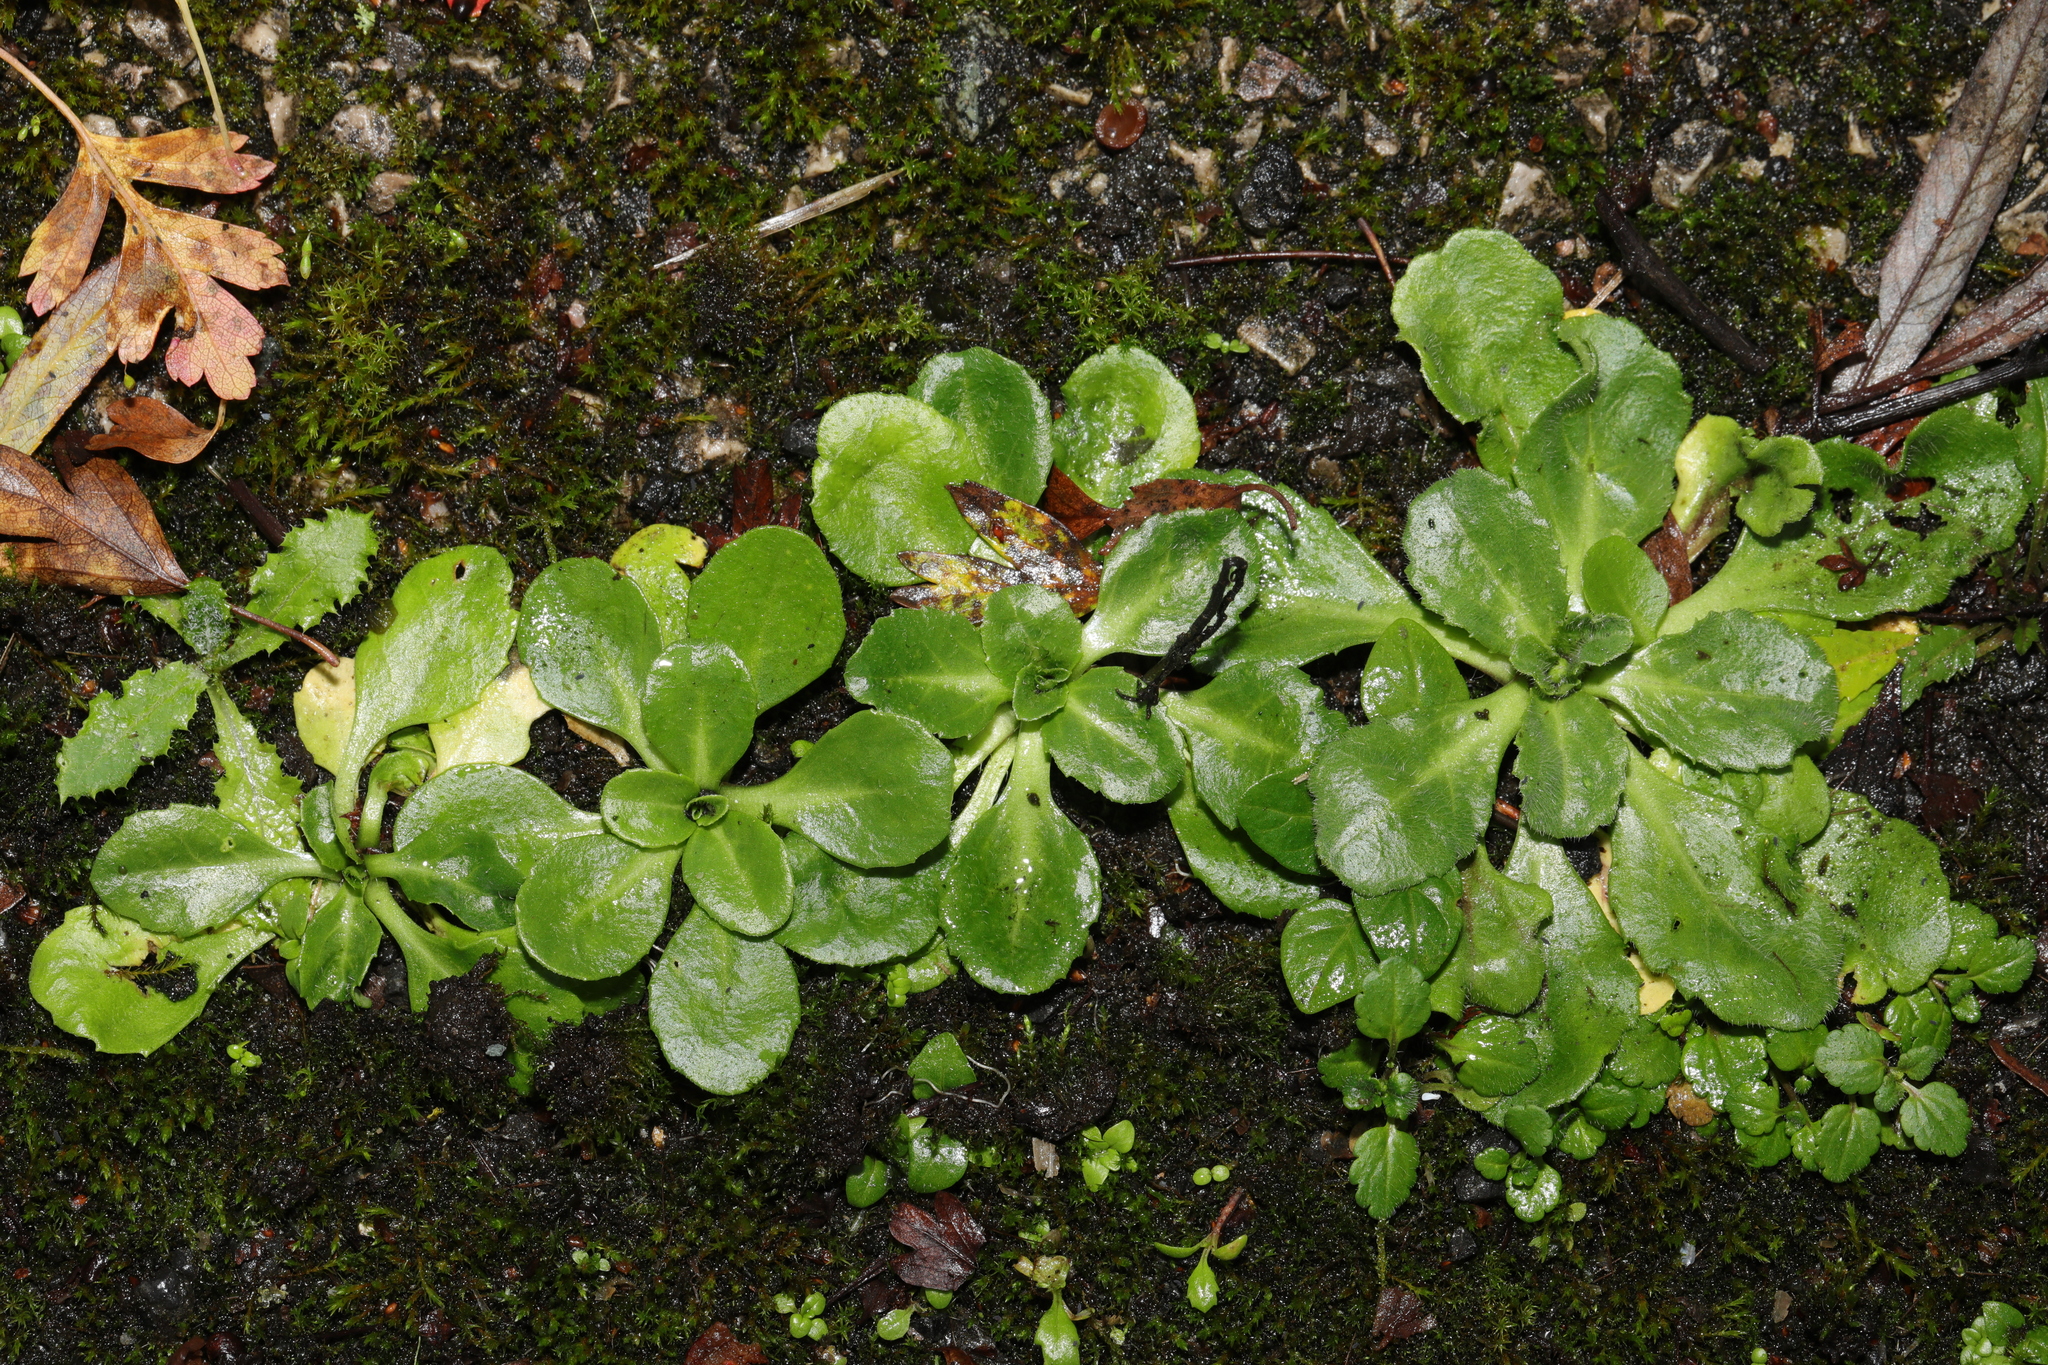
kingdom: Plantae
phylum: Tracheophyta
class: Magnoliopsida
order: Asterales
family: Asteraceae
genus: Bellis
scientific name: Bellis perennis
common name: Lawndaisy
